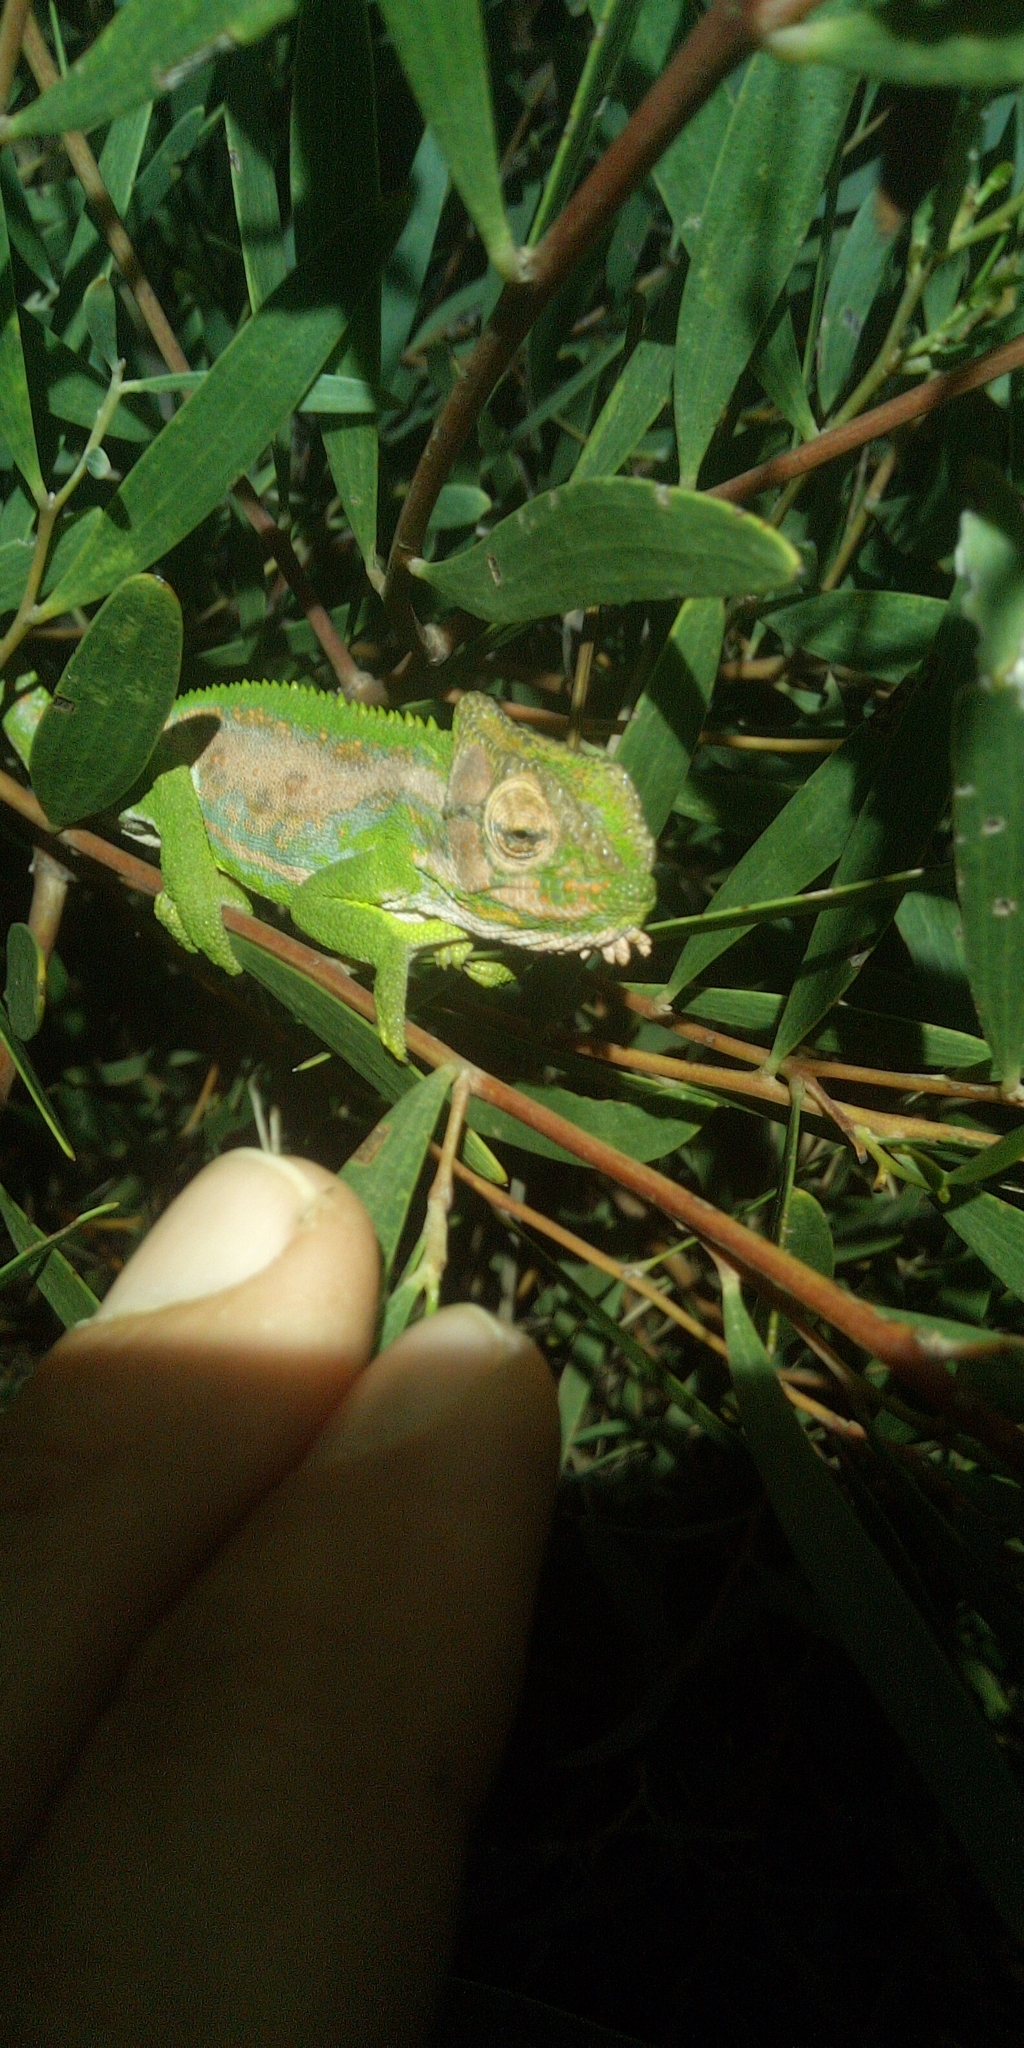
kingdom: Animalia
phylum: Chordata
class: Squamata
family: Chamaeleonidae
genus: Bradypodion
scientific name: Bradypodion pumilum
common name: Cape dwarf chameleon
